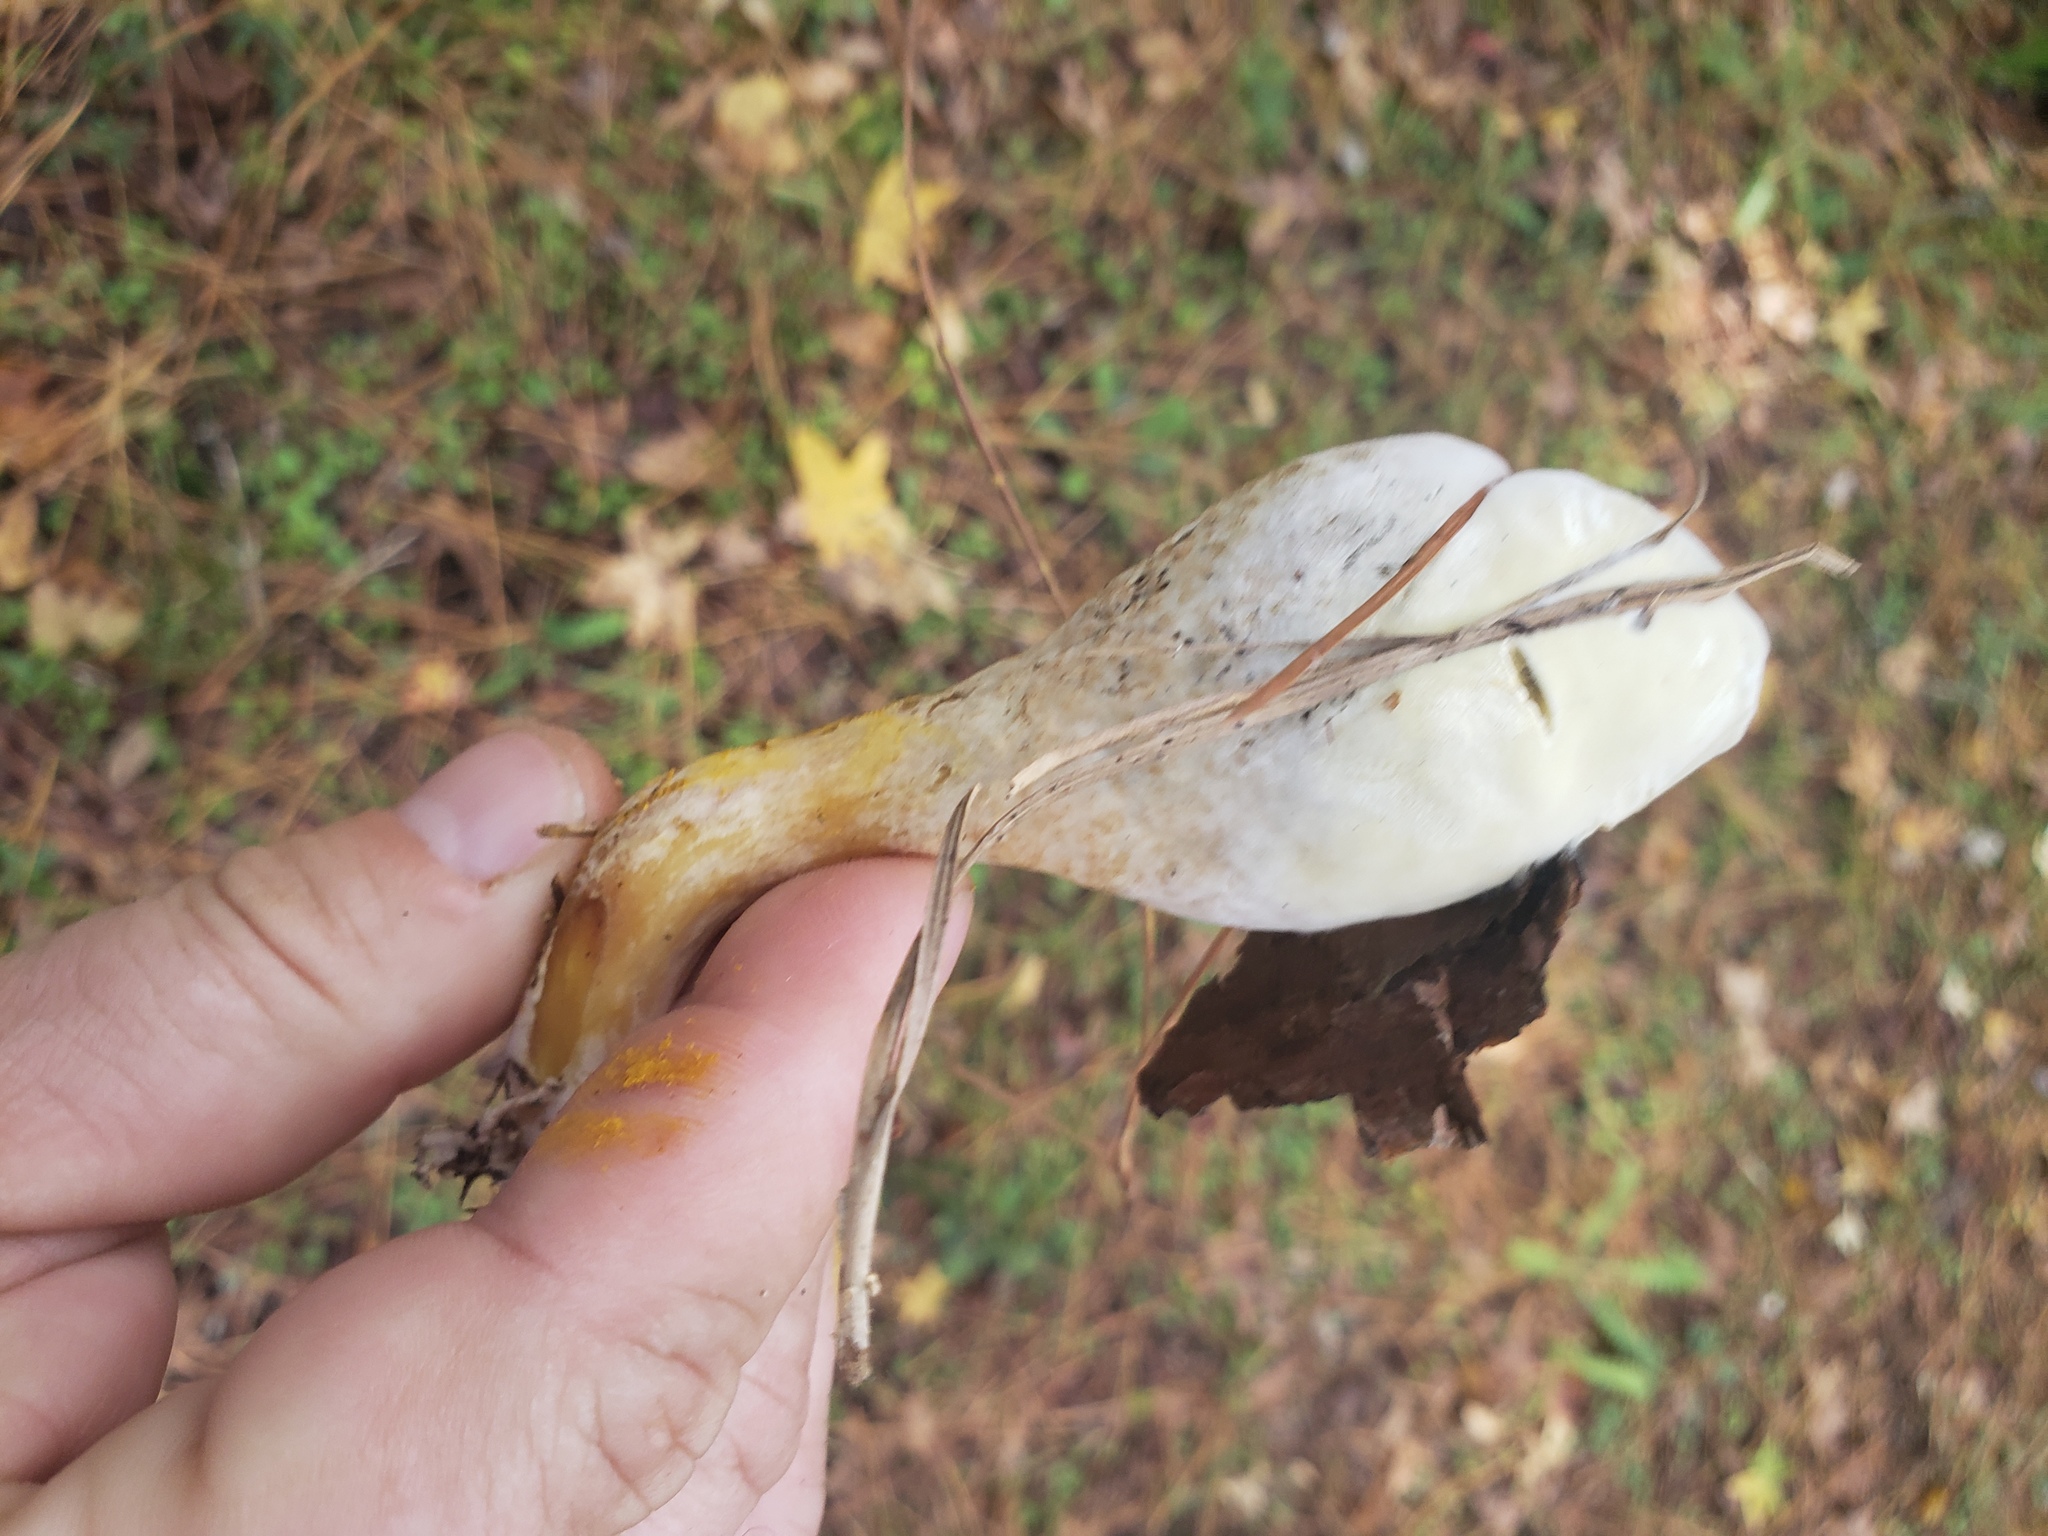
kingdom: Fungi
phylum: Basidiomycota
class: Agaricomycetes
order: Boletales
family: Rhizopogonaceae
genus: Rhopalogaster
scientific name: Rhopalogaster transversarius
